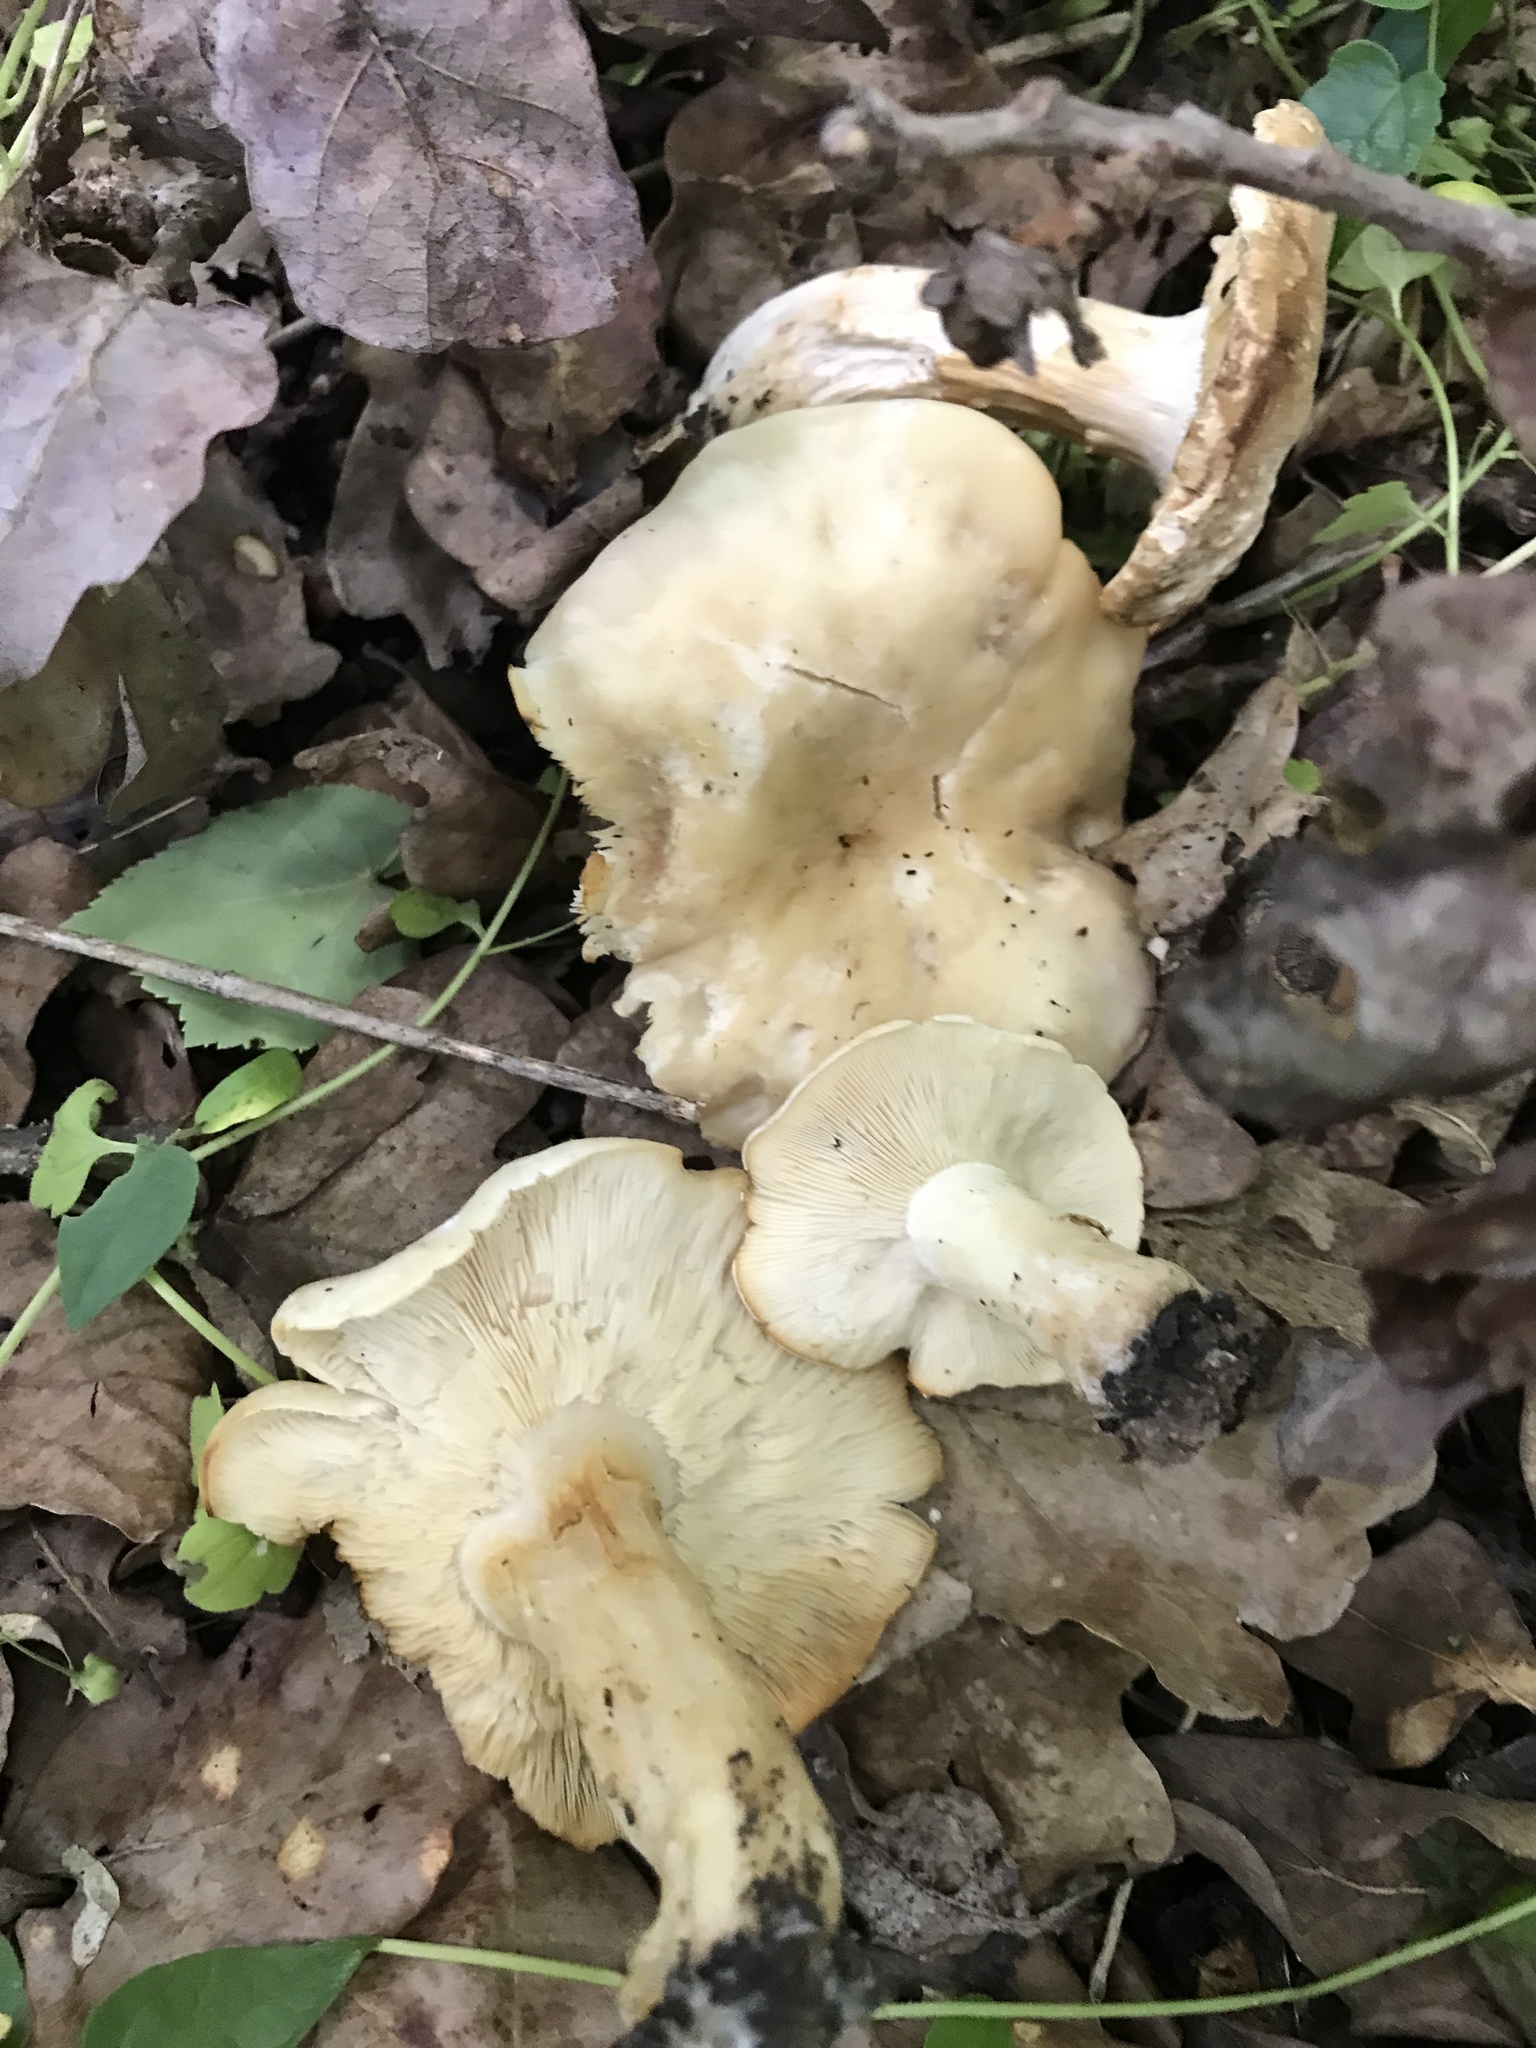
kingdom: Fungi
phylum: Basidiomycota
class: Agaricomycetes
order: Agaricales
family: Lyophyllaceae
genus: Calocybe
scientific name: Calocybe gambosa
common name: St. george's mushroom
